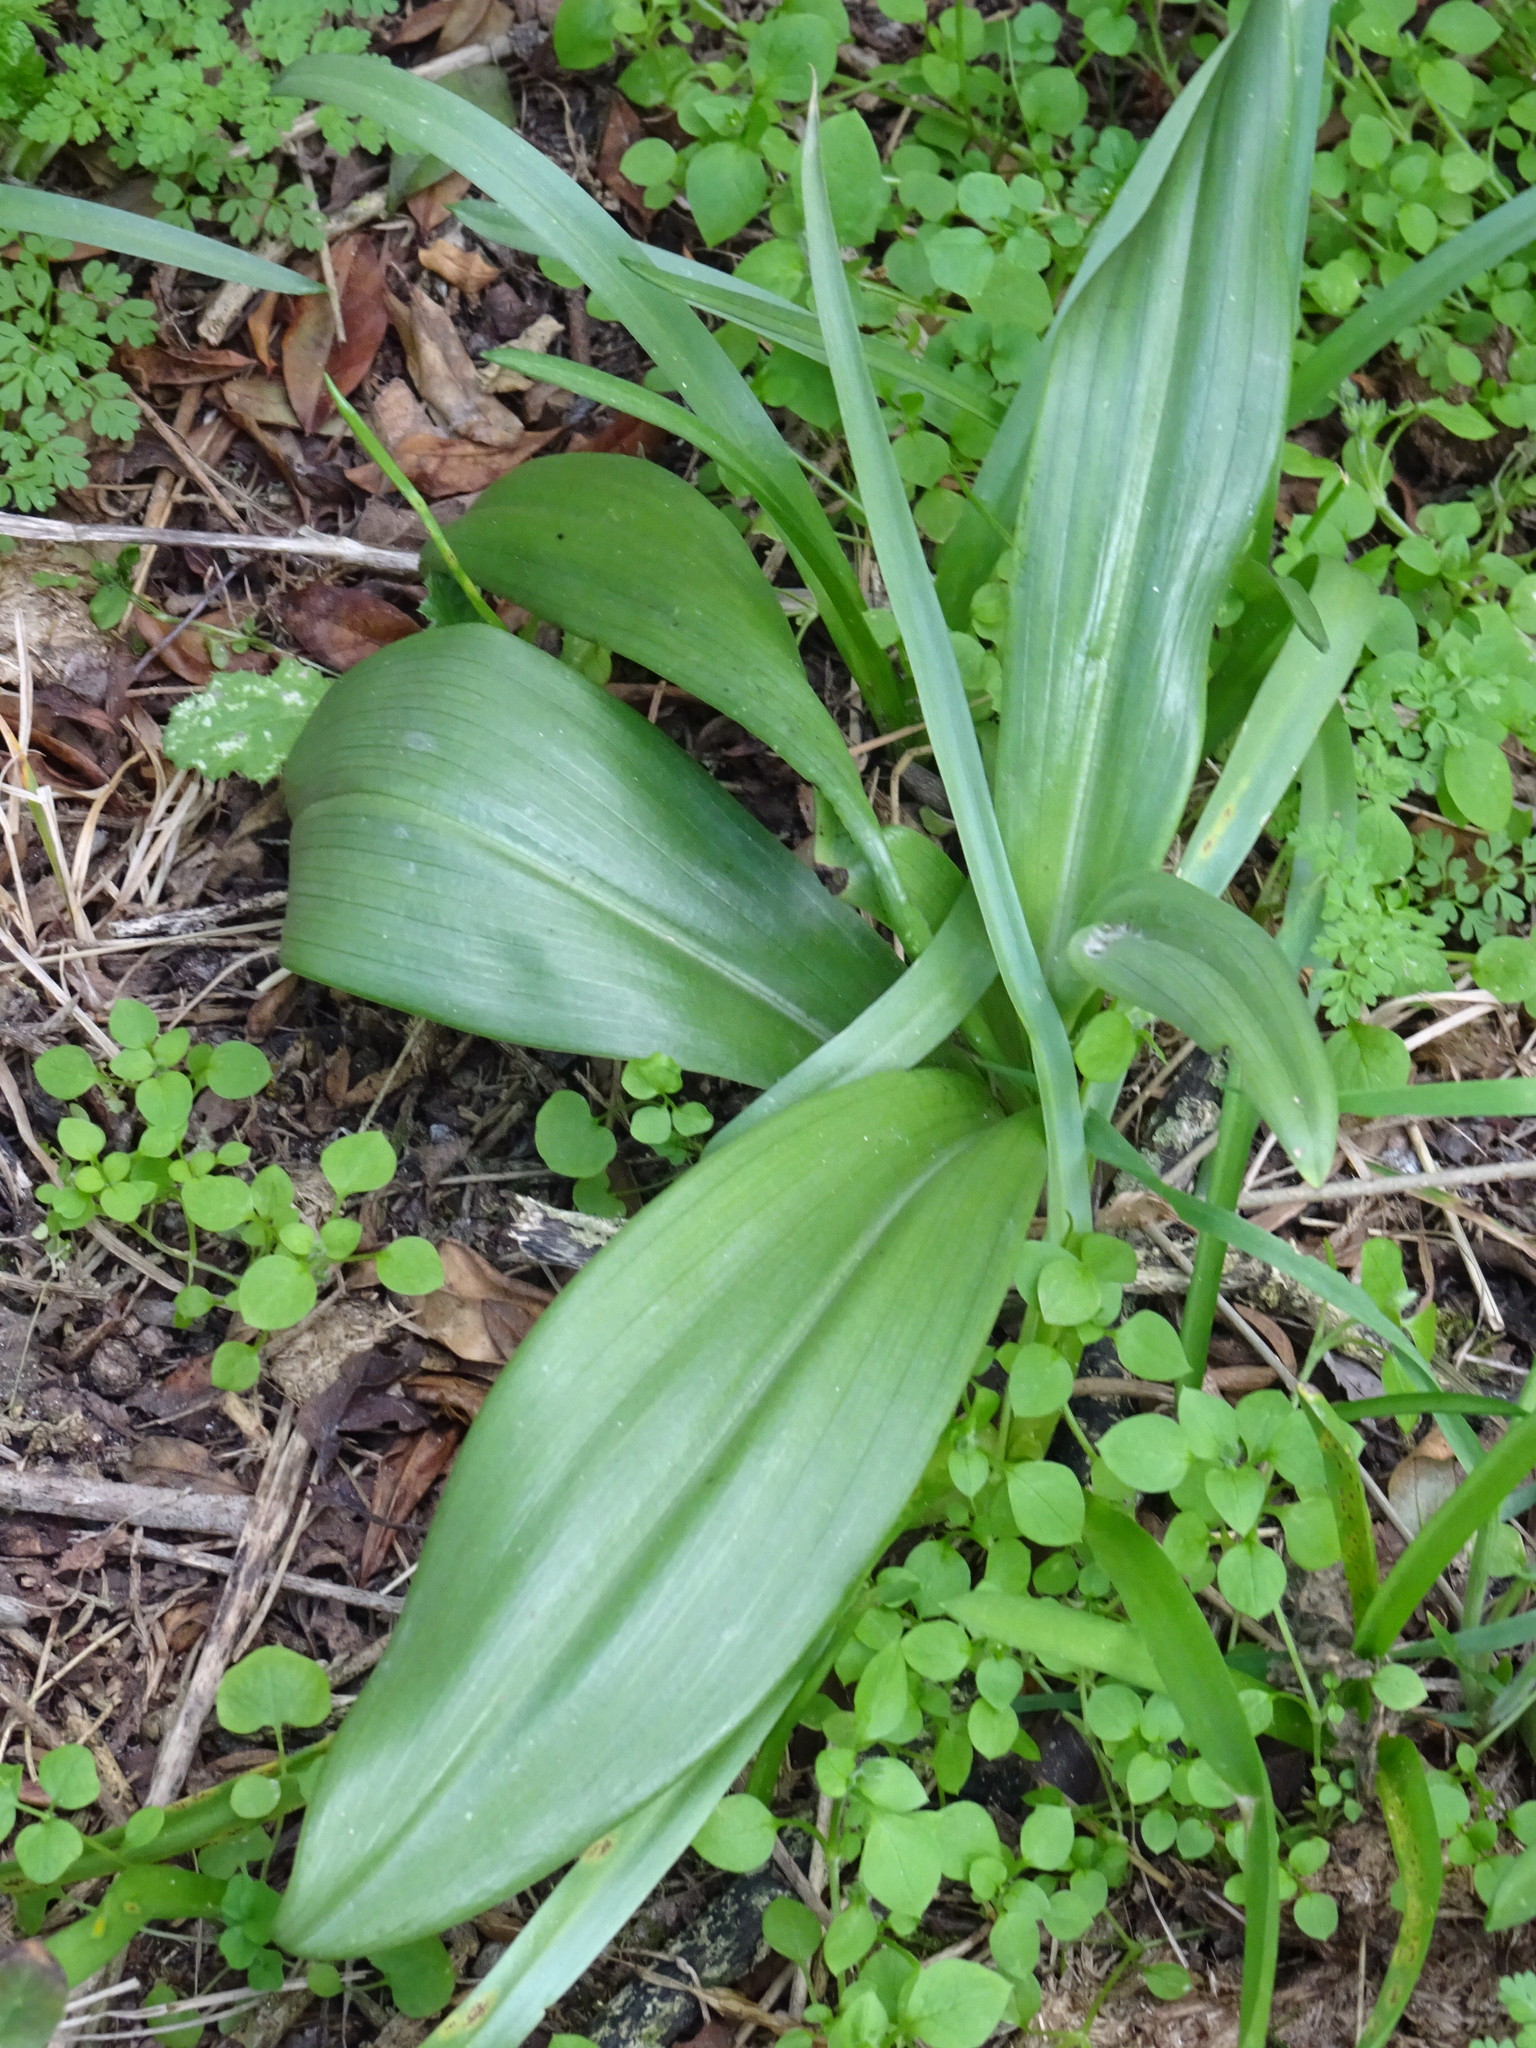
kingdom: Plantae
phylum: Tracheophyta
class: Liliopsida
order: Asparagales
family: Orchidaceae
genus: Himantoglossum
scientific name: Himantoglossum hircinum
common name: Lizard orchid
